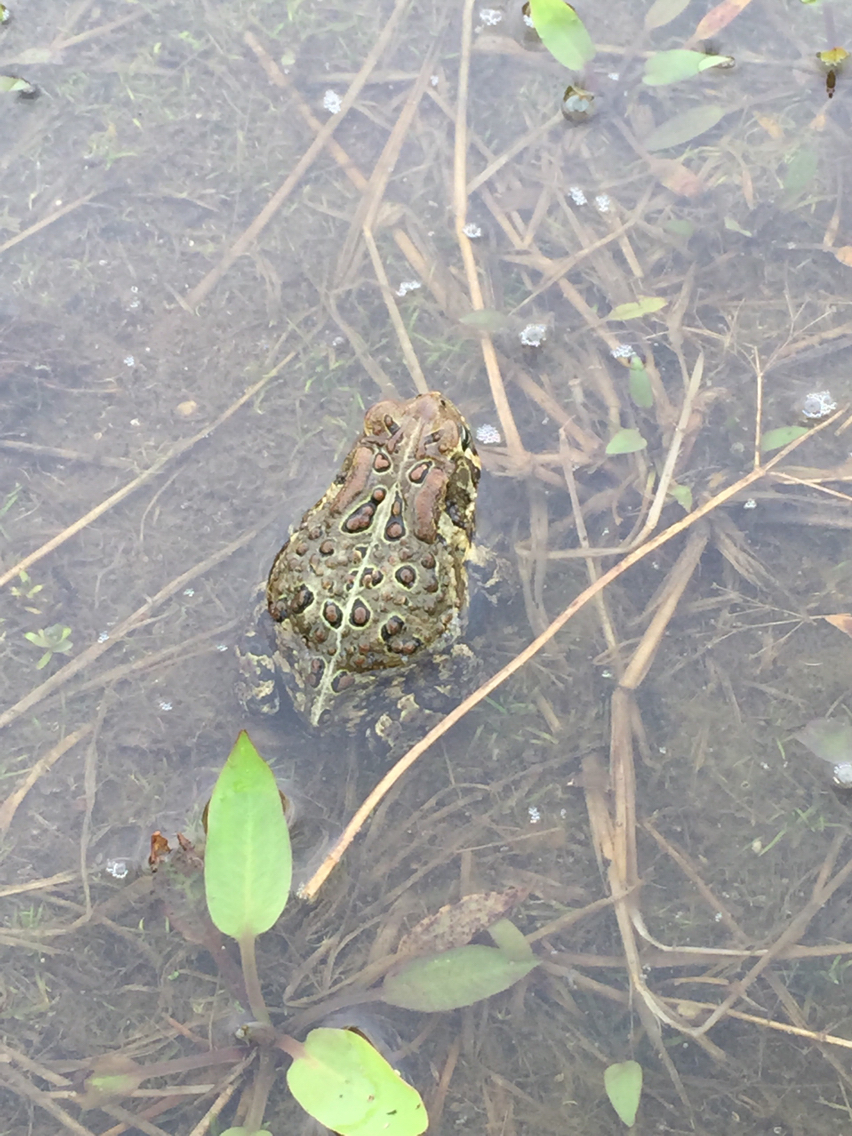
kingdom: Animalia
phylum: Chordata
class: Amphibia
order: Anura
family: Bufonidae
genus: Anaxyrus
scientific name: Anaxyrus americanus
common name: American toad
